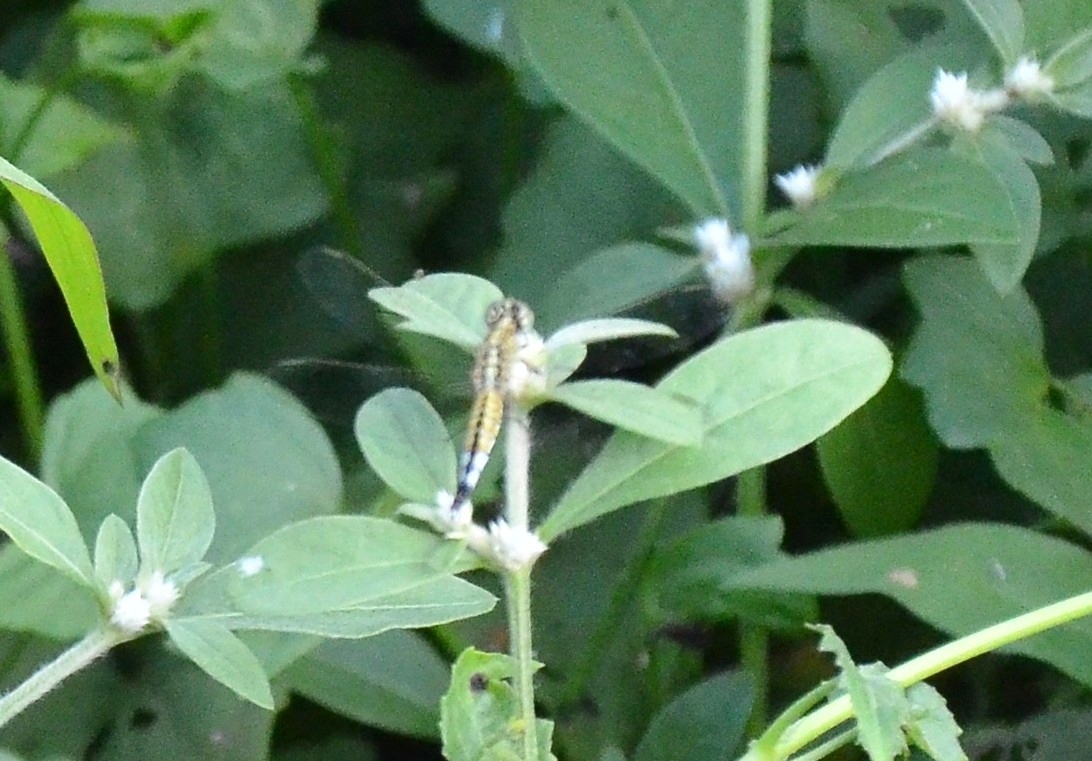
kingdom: Animalia
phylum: Arthropoda
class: Insecta
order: Odonata
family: Libellulidae
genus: Acisoma
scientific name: Acisoma panorpoides
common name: Asian pintail
